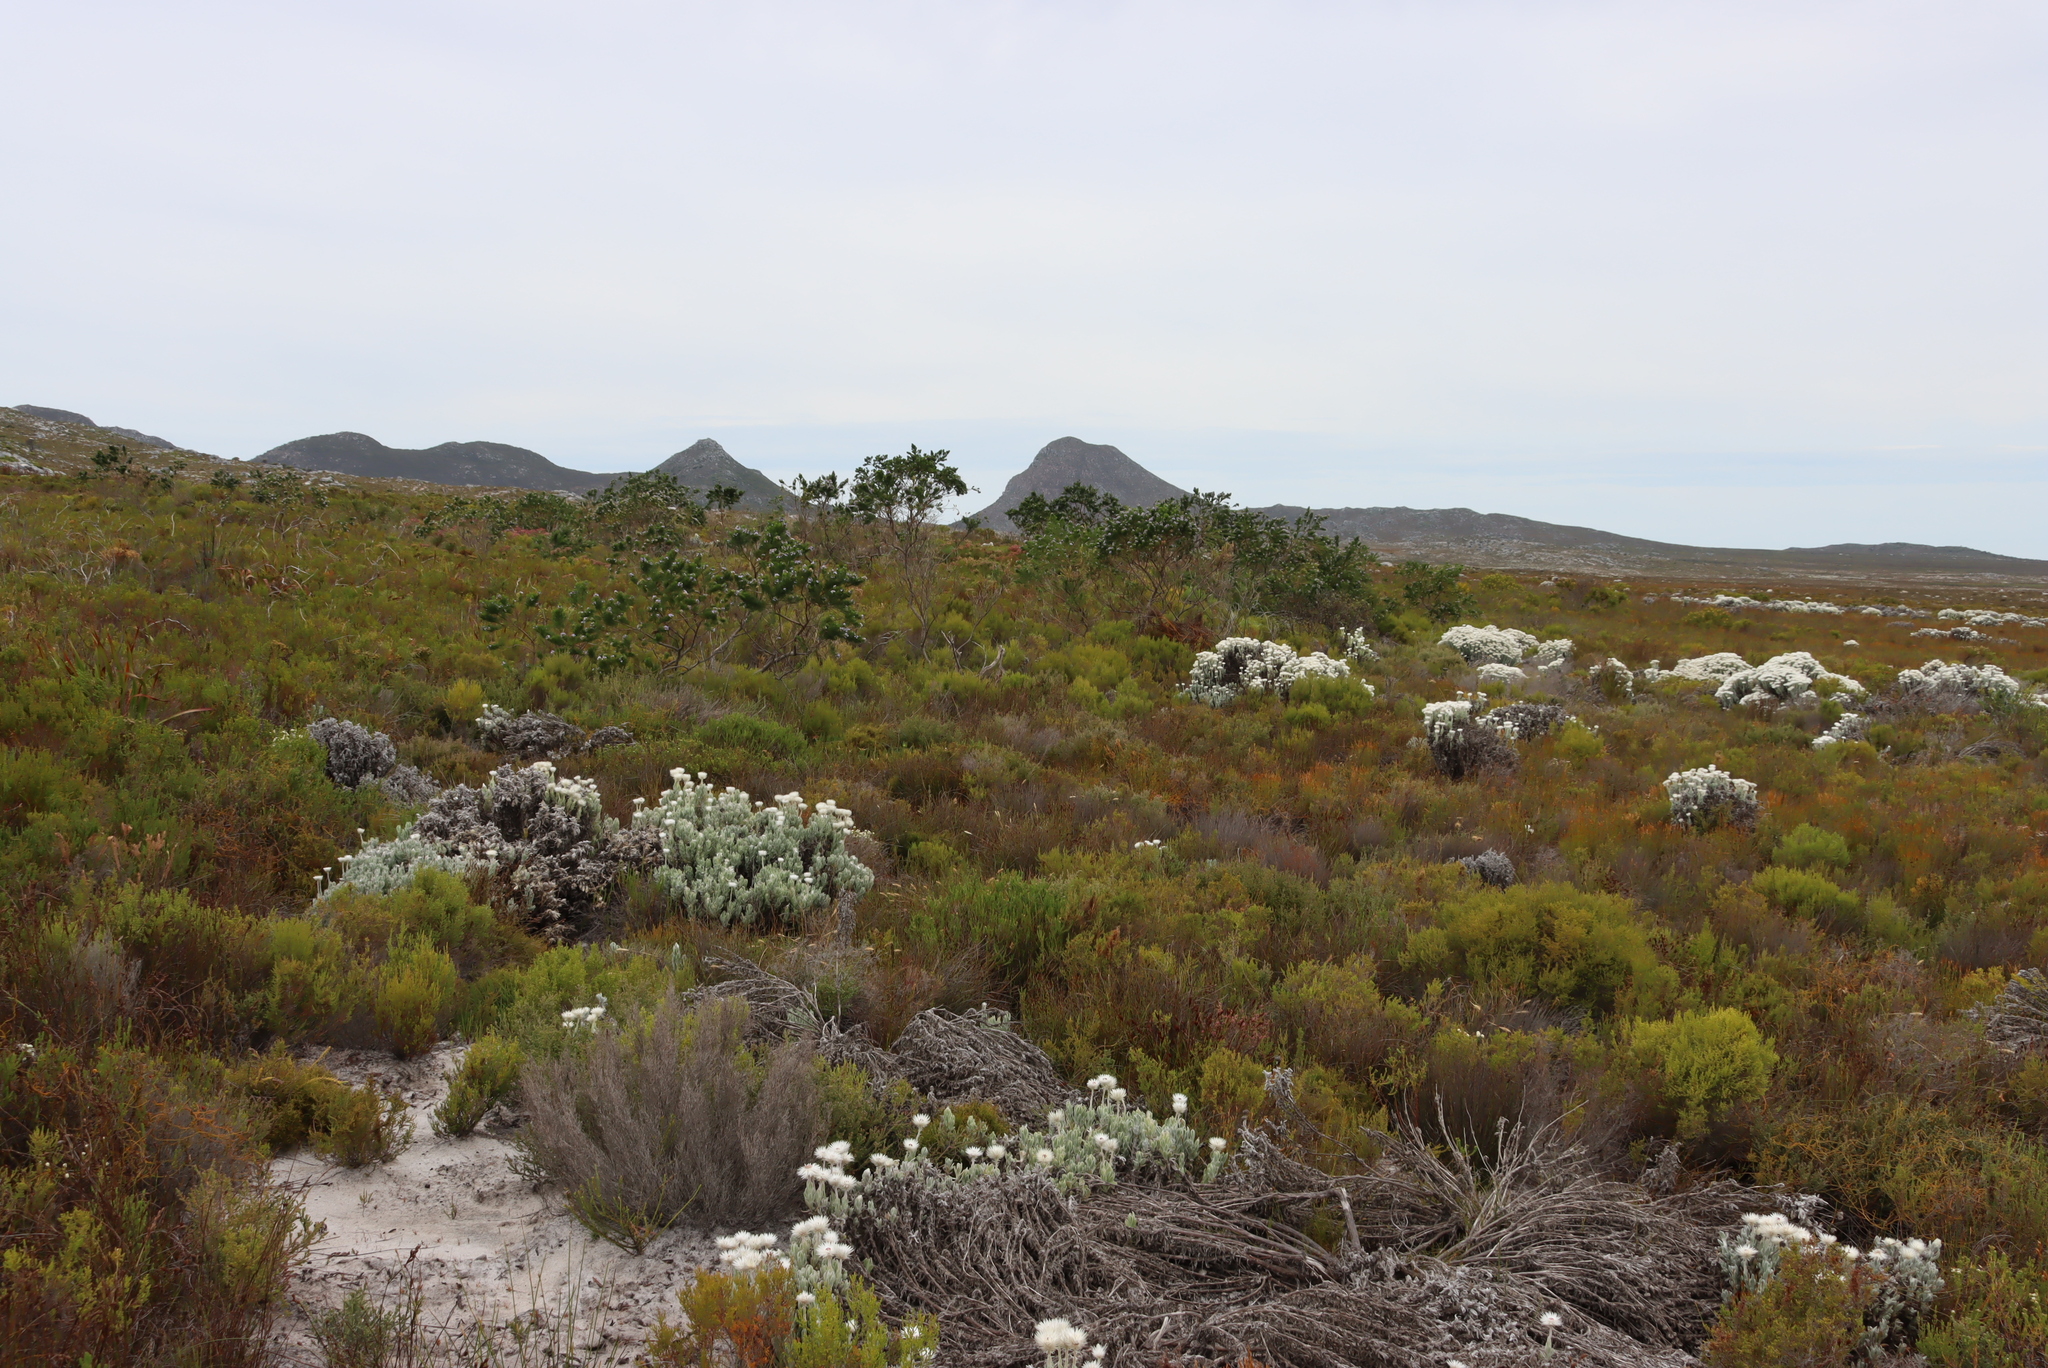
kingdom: Plantae
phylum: Tracheophyta
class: Magnoliopsida
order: Fabales
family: Fabaceae
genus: Psoralea
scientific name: Psoralea pinnata
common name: African scurfpea
